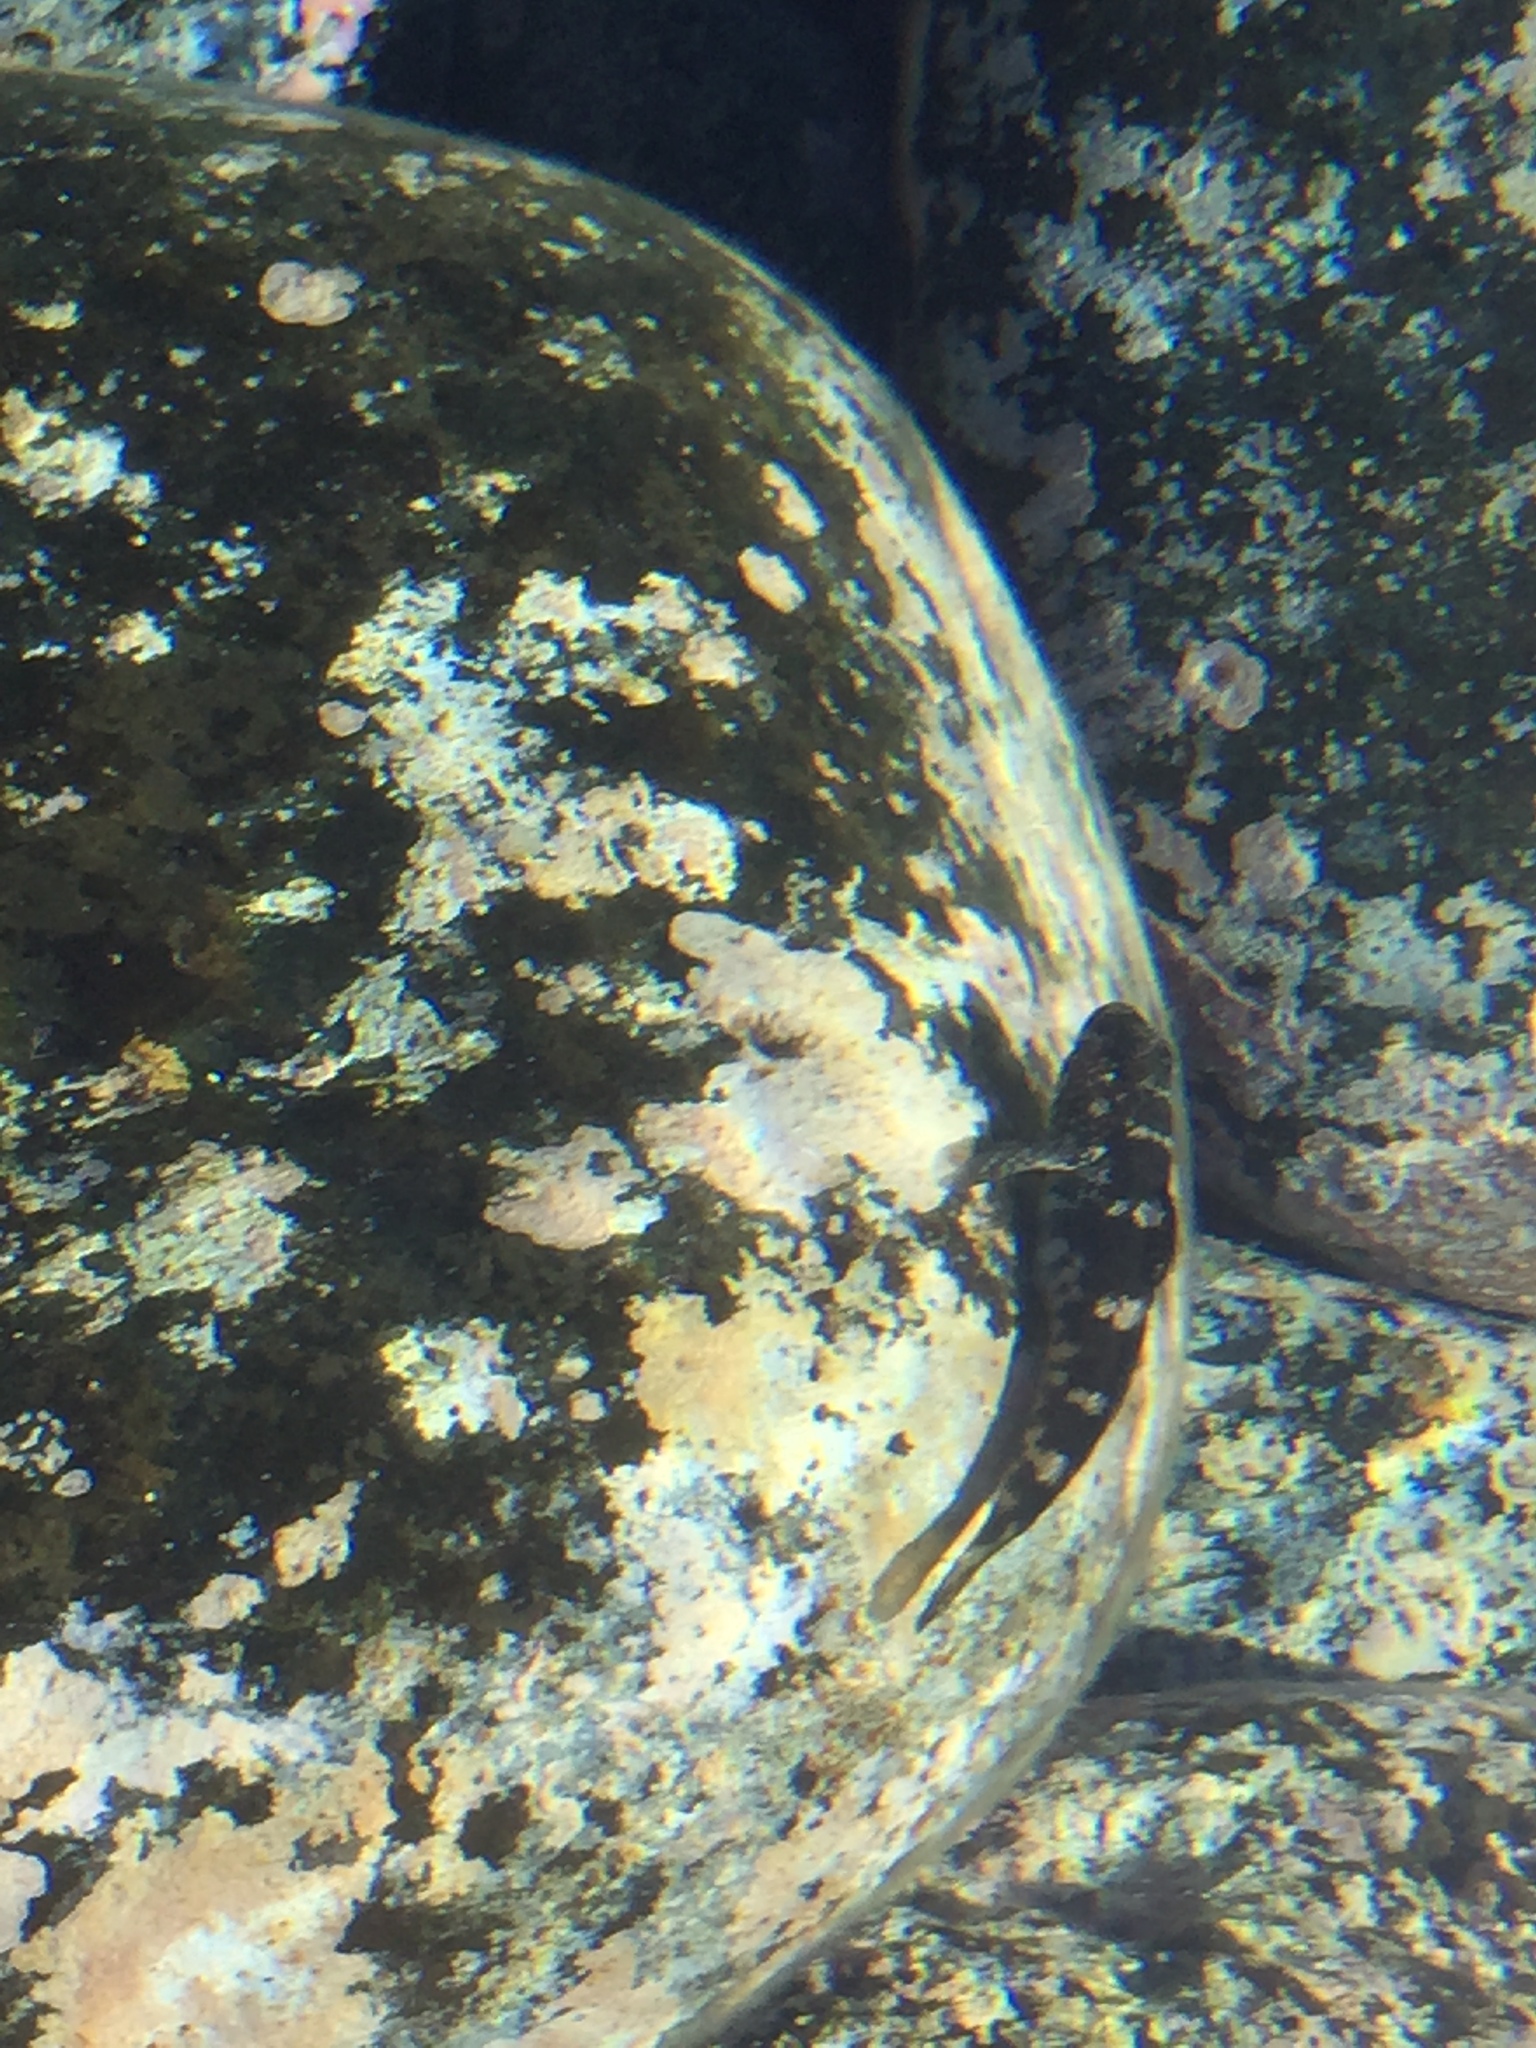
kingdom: Animalia
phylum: Chordata
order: Perciformes
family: Gobiidae
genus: Mauligobius
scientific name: Mauligobius maderensis
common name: Rock goby
